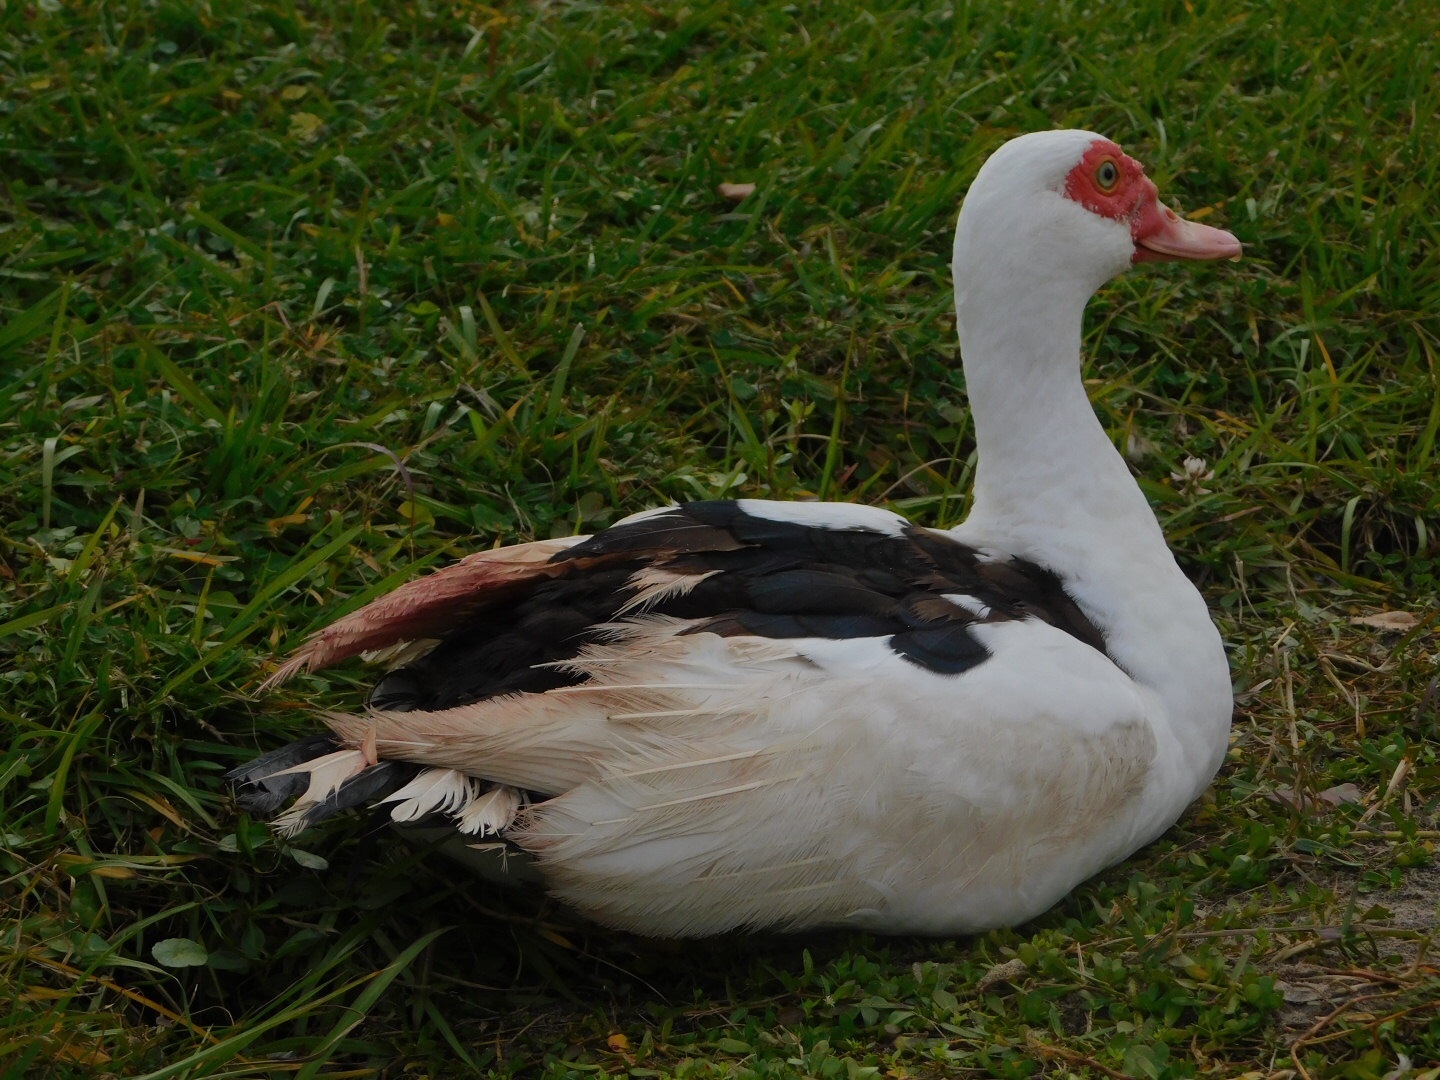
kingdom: Animalia
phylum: Chordata
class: Aves
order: Anseriformes
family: Anatidae
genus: Cairina
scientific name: Cairina moschata
